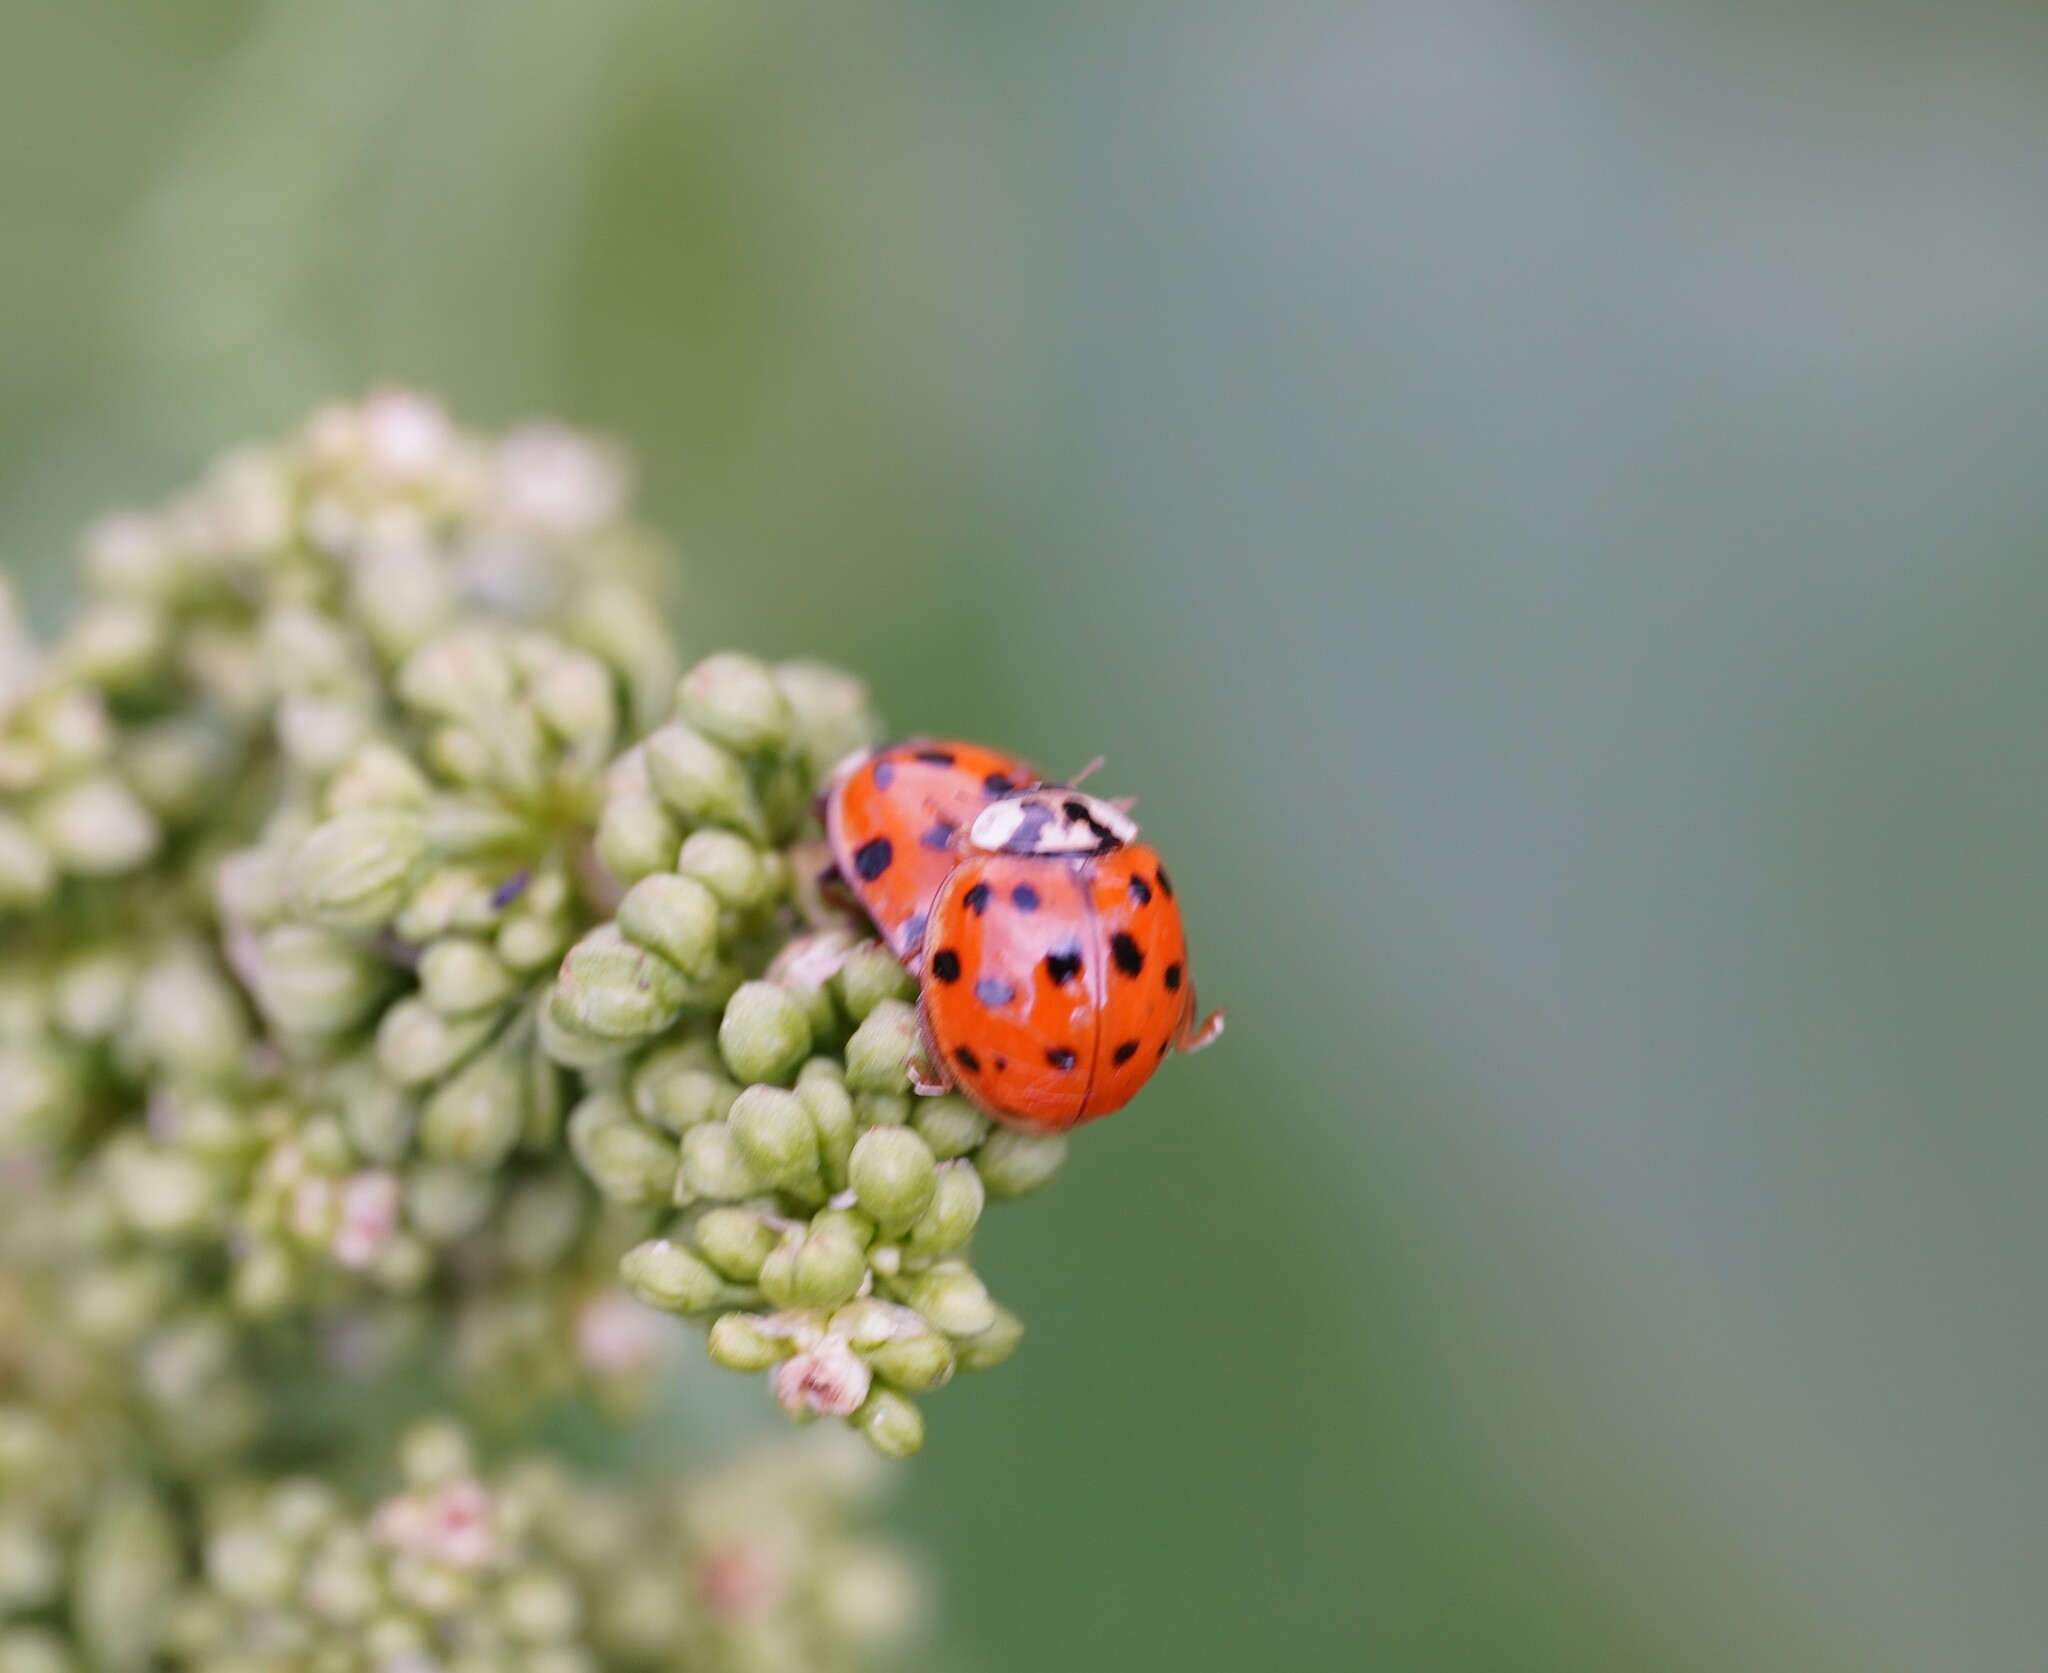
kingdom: Animalia
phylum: Arthropoda
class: Insecta
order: Coleoptera
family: Coccinellidae
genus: Harmonia
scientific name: Harmonia axyridis
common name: Harlequin ladybird
